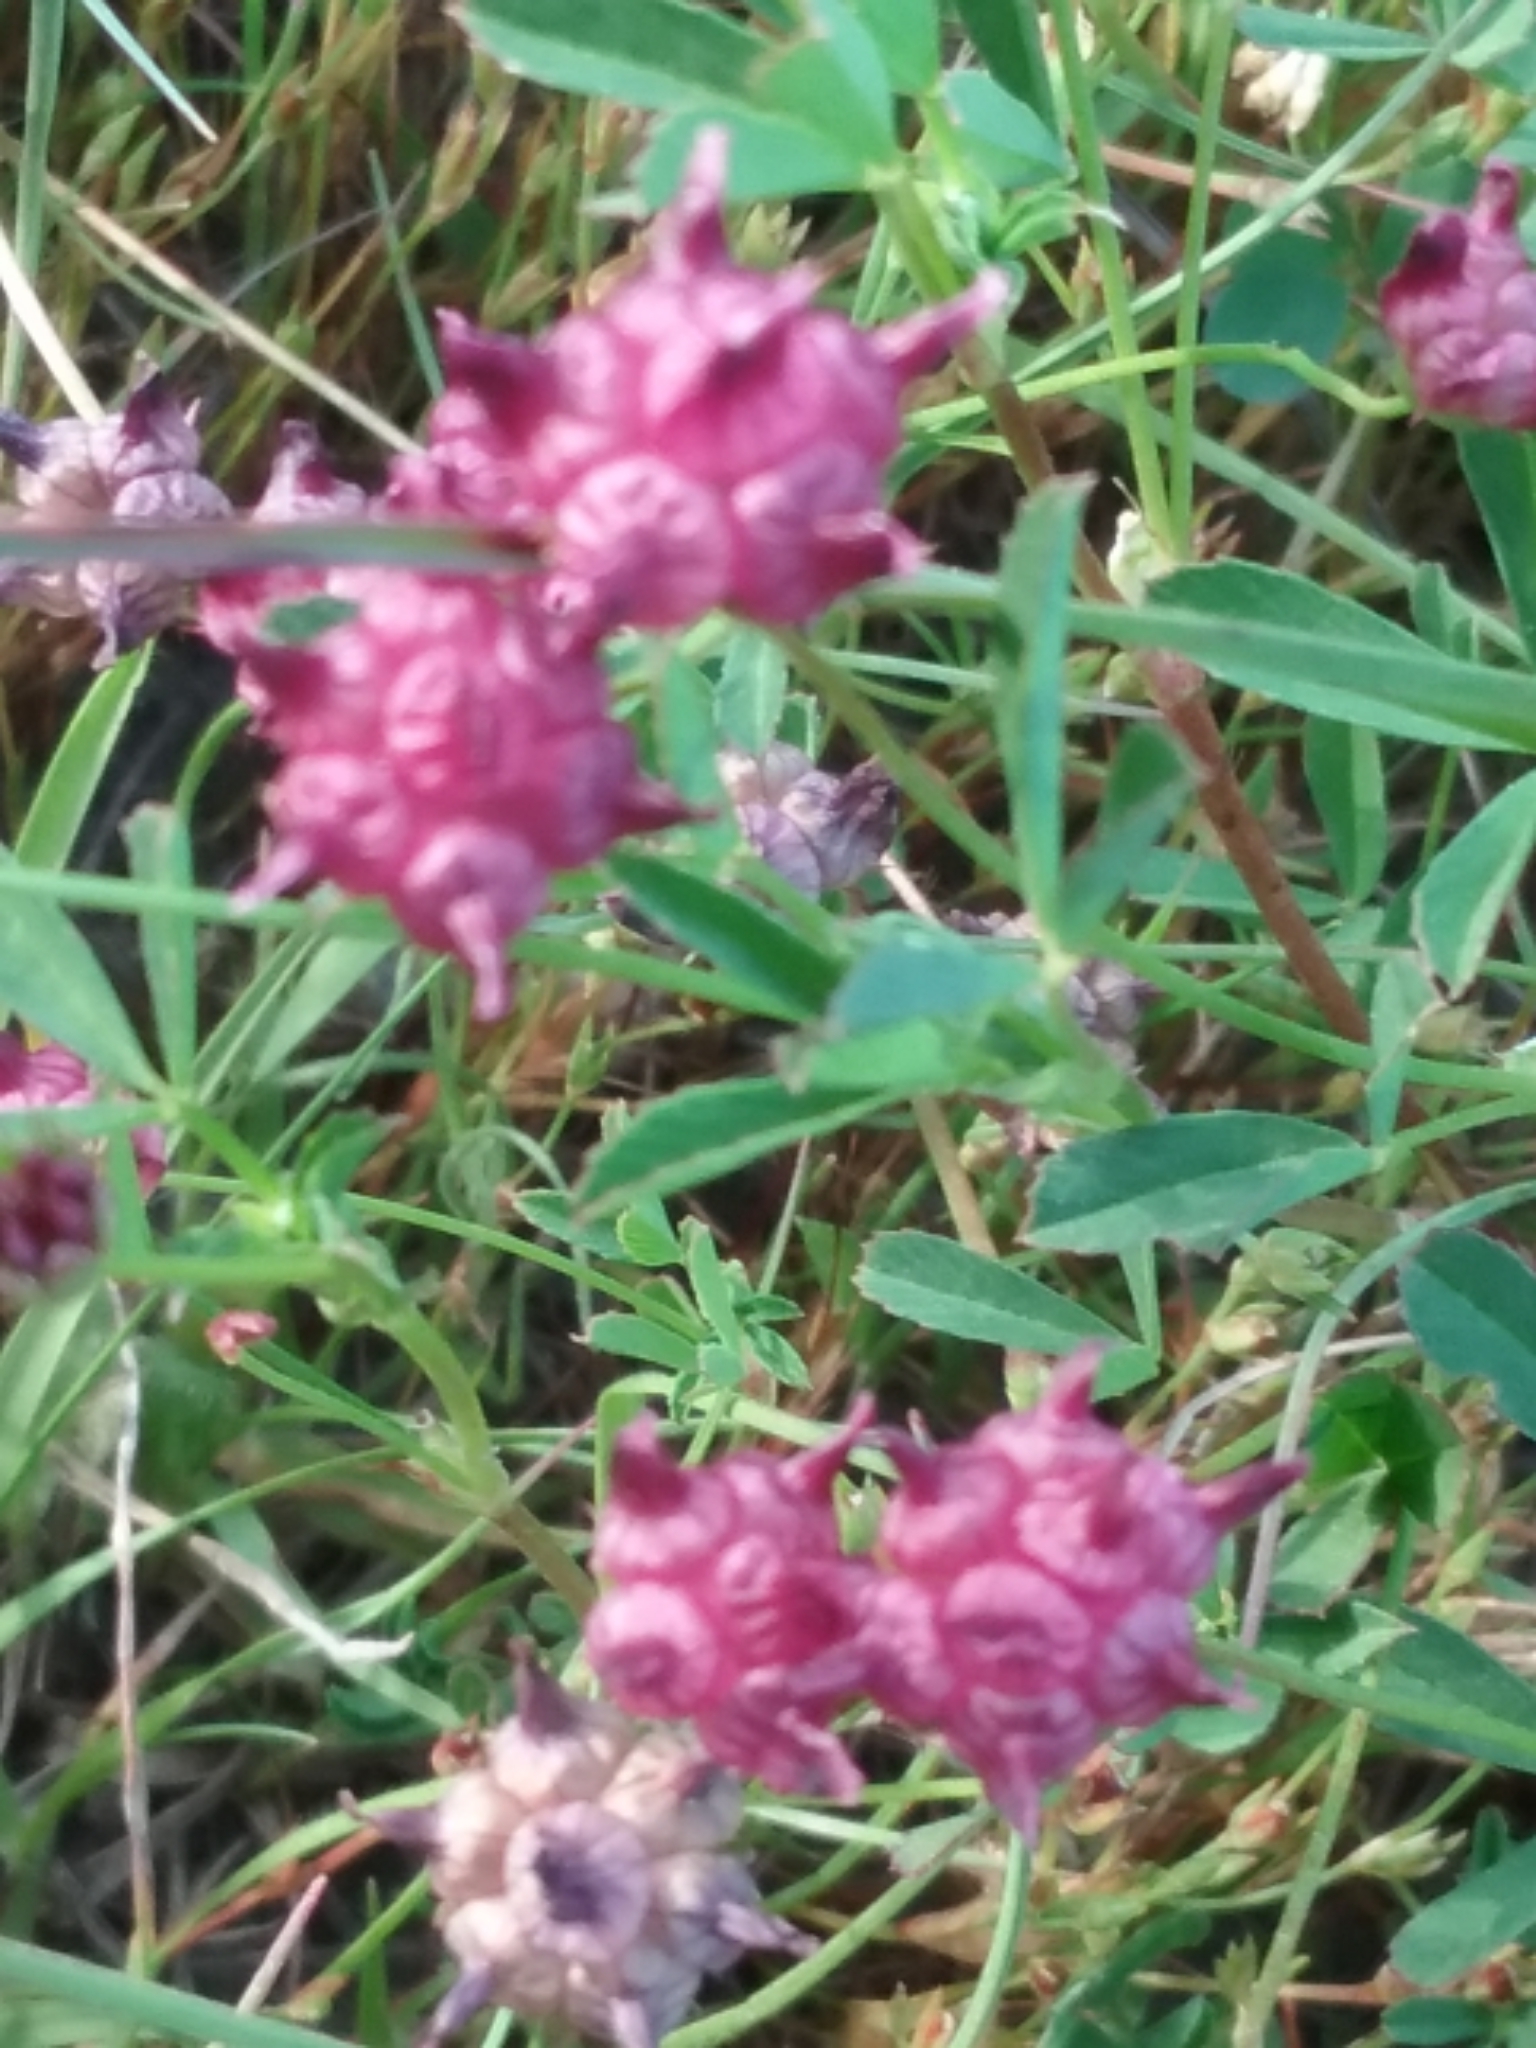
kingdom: Plantae
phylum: Tracheophyta
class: Magnoliopsida
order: Fabales
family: Fabaceae
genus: Trifolium
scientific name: Trifolium depauperatum
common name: Poverty clover
